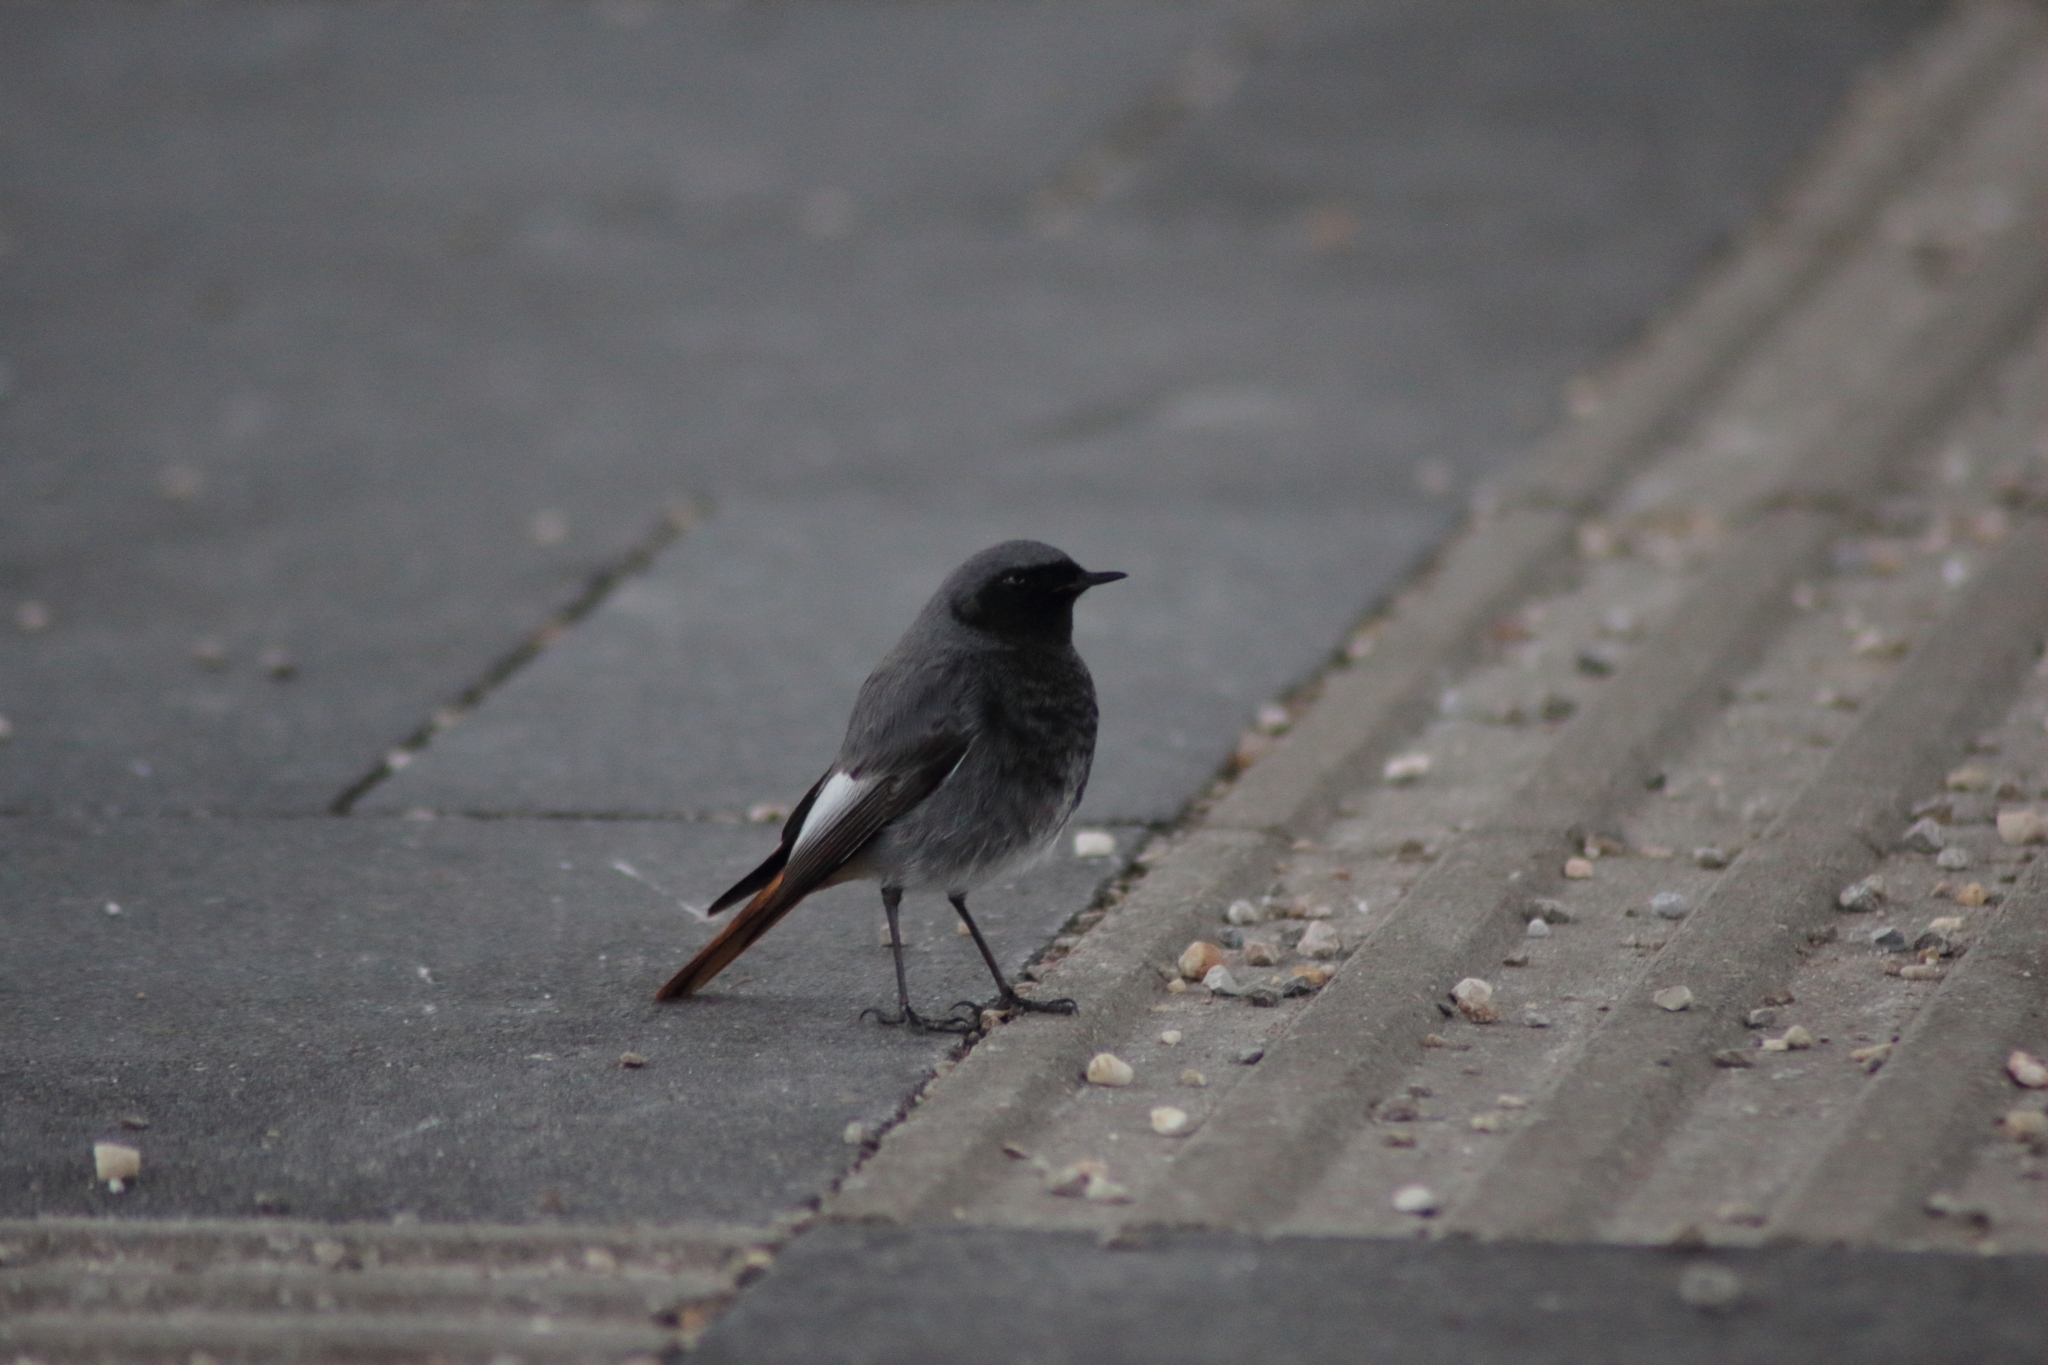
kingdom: Animalia
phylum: Chordata
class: Aves
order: Passeriformes
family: Muscicapidae
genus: Phoenicurus
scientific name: Phoenicurus ochruros
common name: Black redstart
